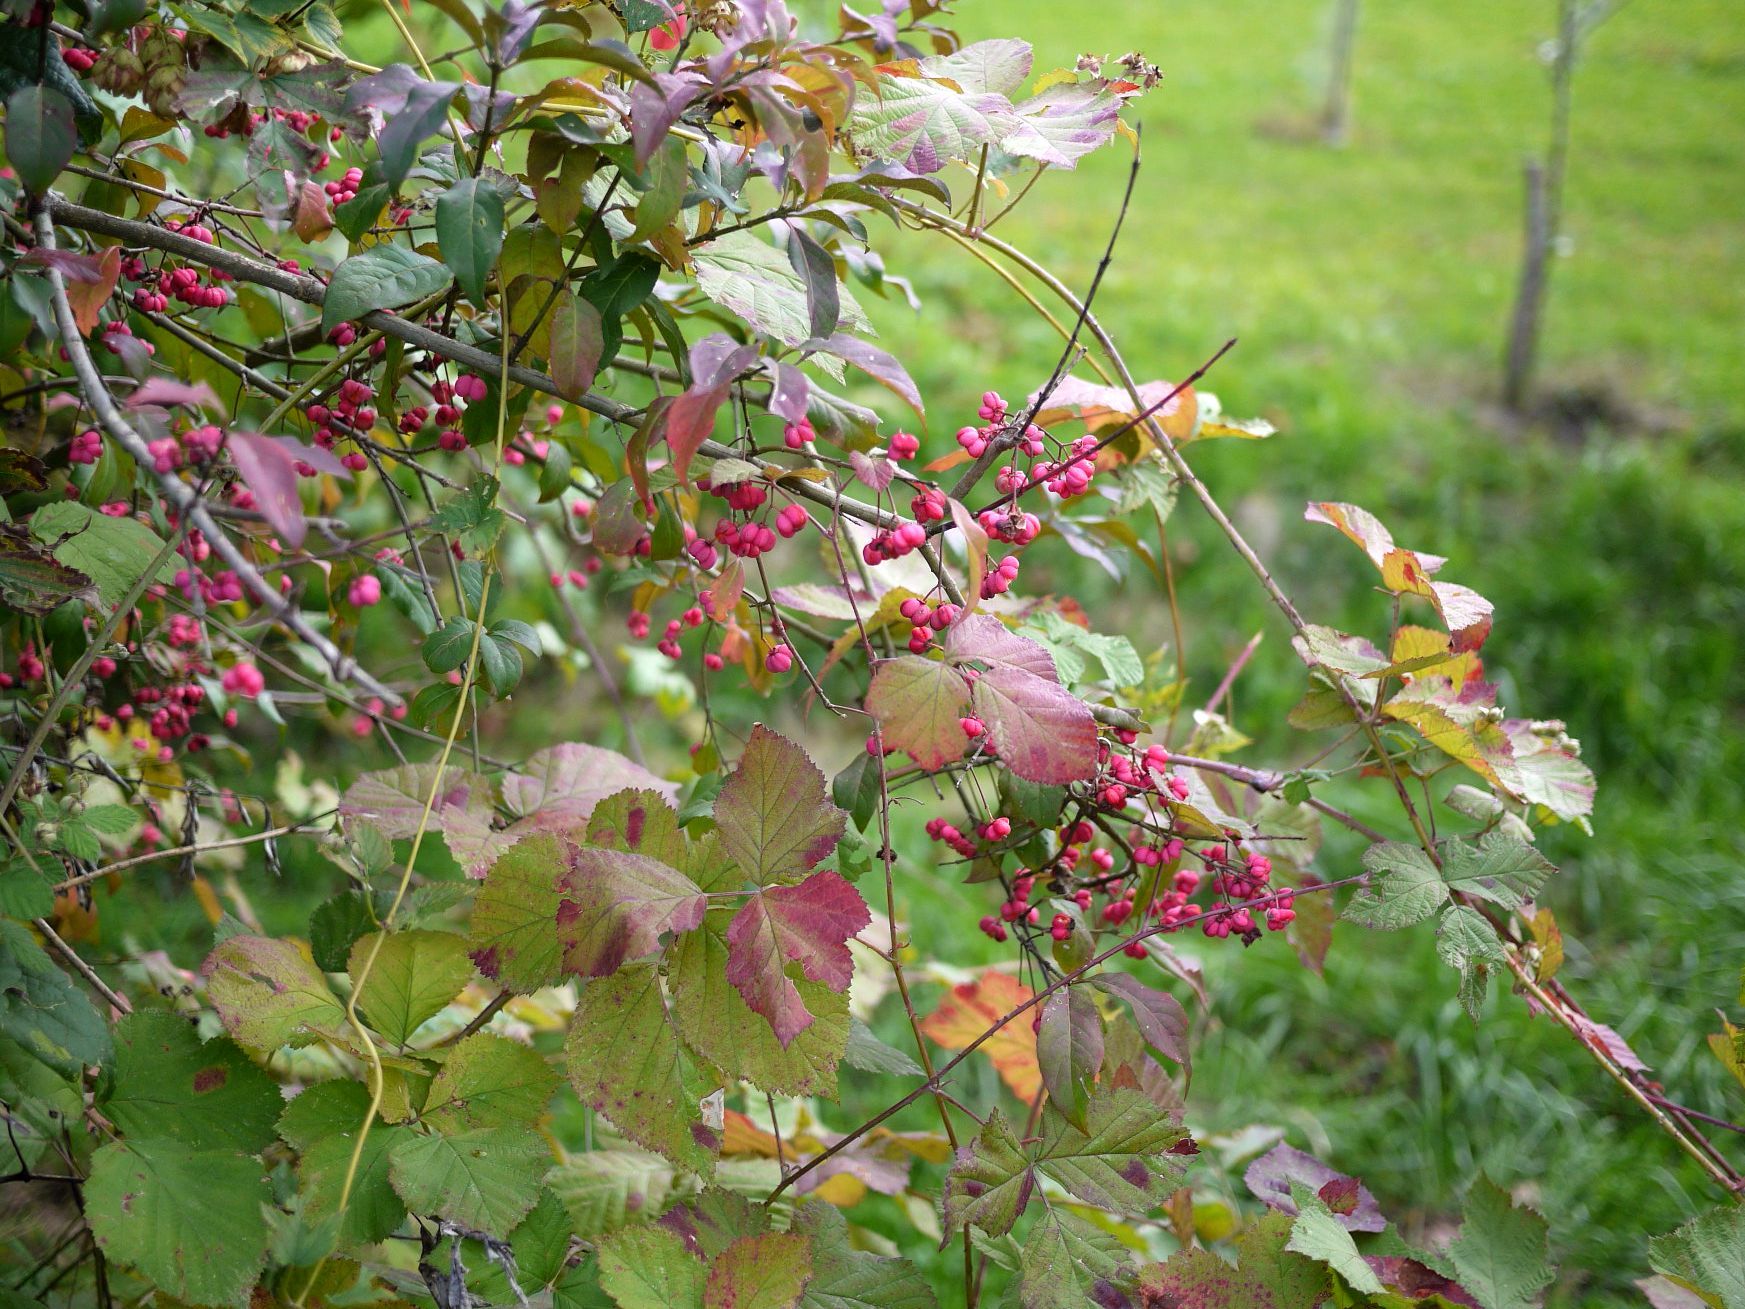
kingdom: Plantae
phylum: Tracheophyta
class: Magnoliopsida
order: Celastrales
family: Celastraceae
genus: Euonymus
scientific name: Euonymus europaeus
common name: Spindle
